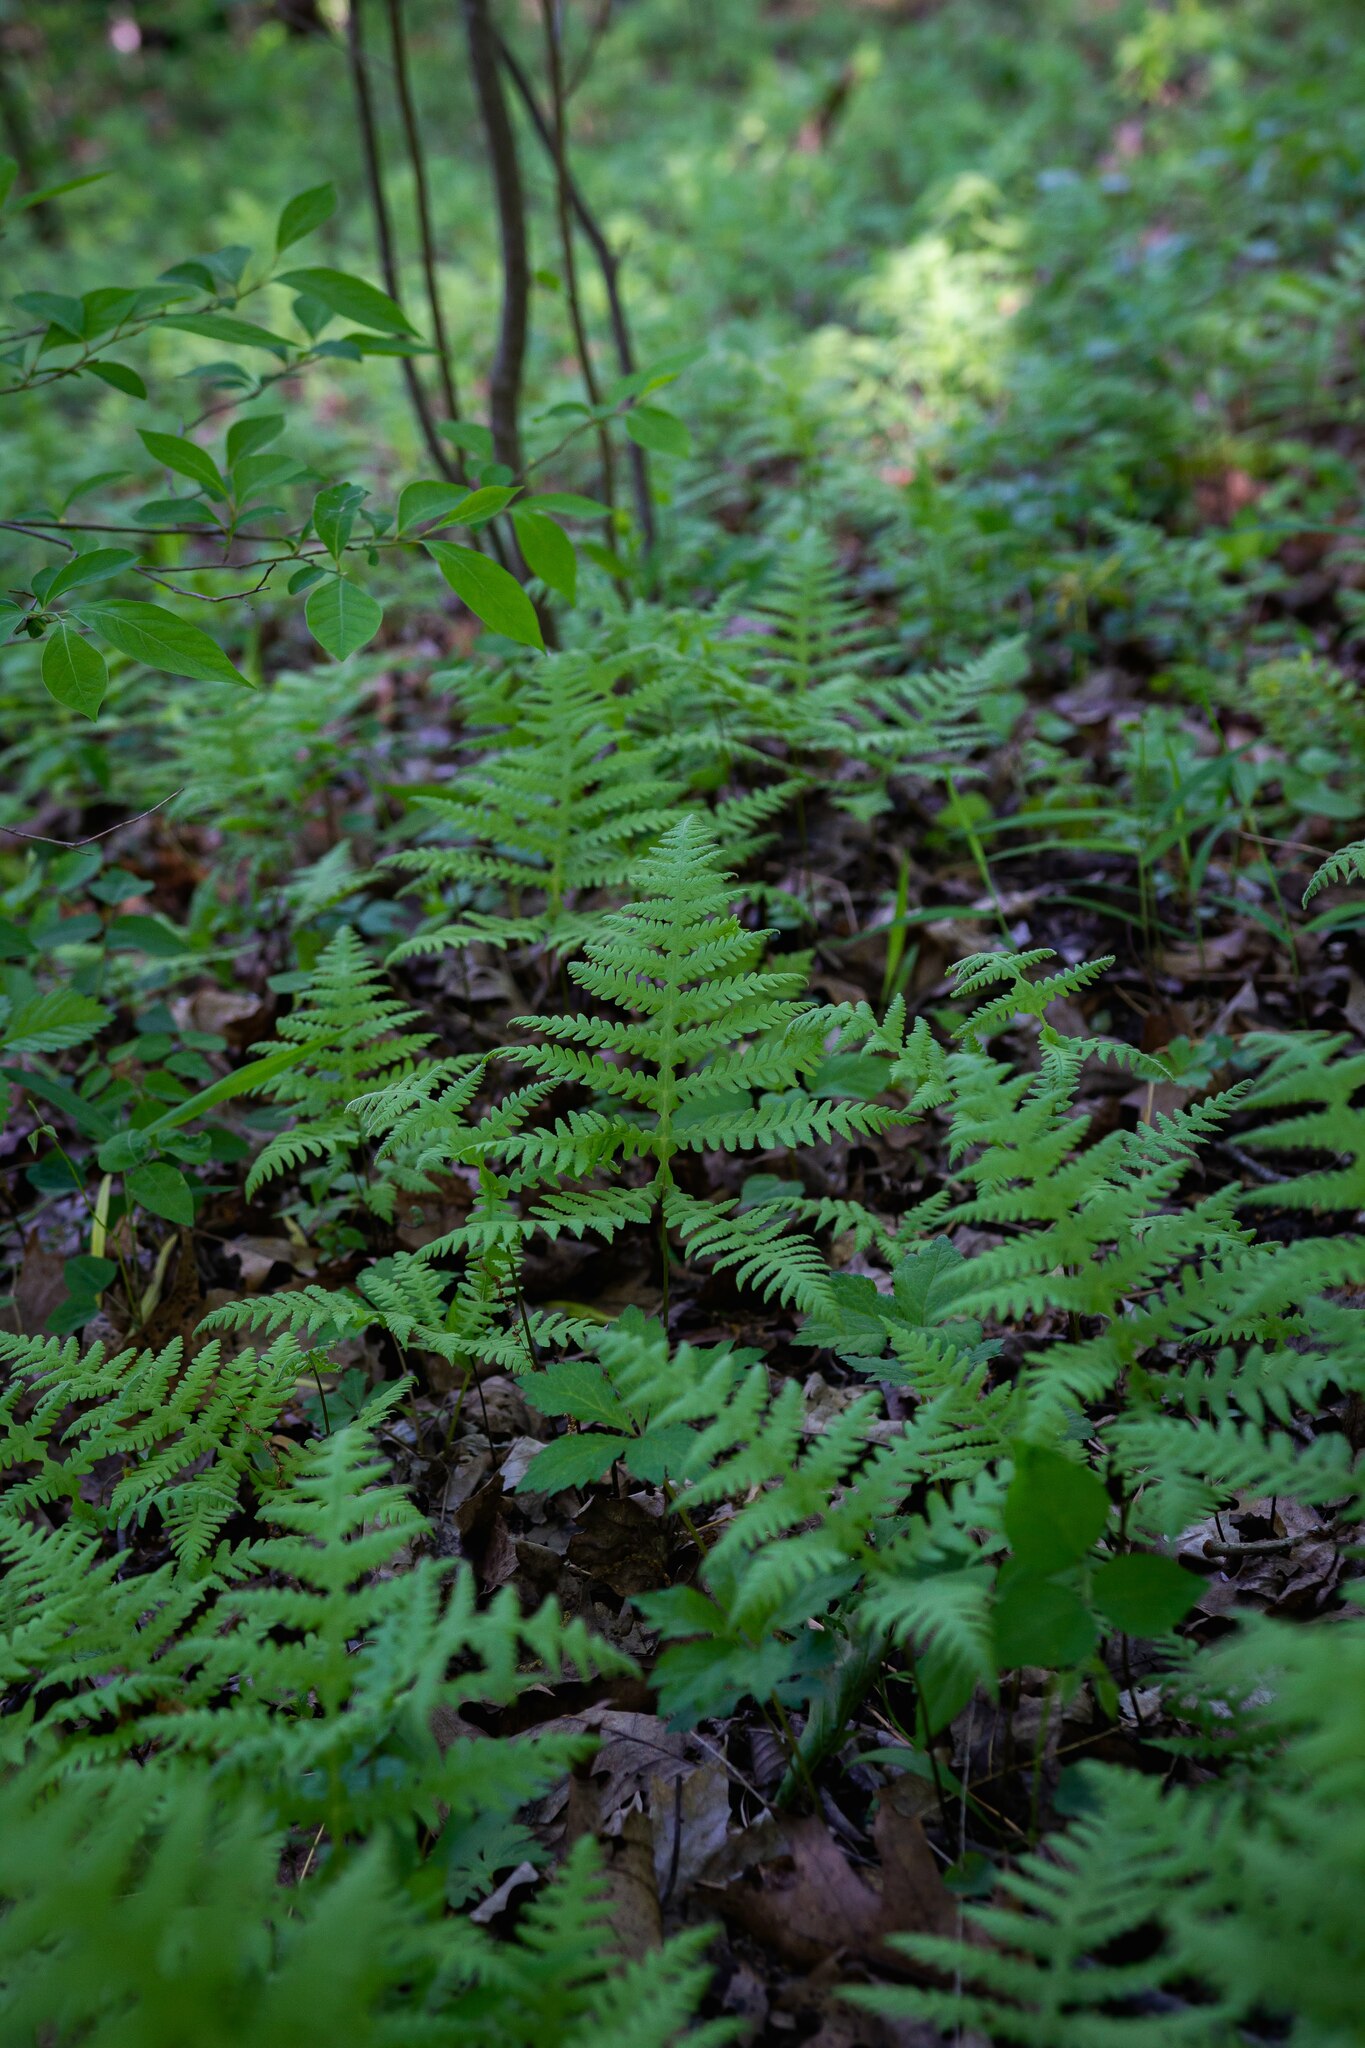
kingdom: Plantae
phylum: Tracheophyta
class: Polypodiopsida
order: Polypodiales
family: Thelypteridaceae
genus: Phegopteris
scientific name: Phegopteris hexagonoptera
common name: Broad beech fern
